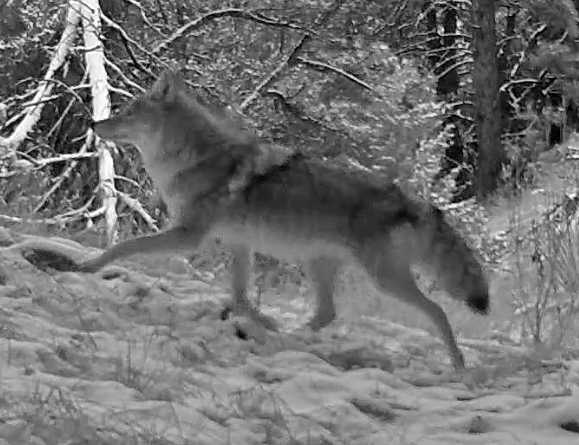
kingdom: Animalia
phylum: Chordata
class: Mammalia
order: Carnivora
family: Canidae
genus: Canis
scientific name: Canis latrans
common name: Coyote
